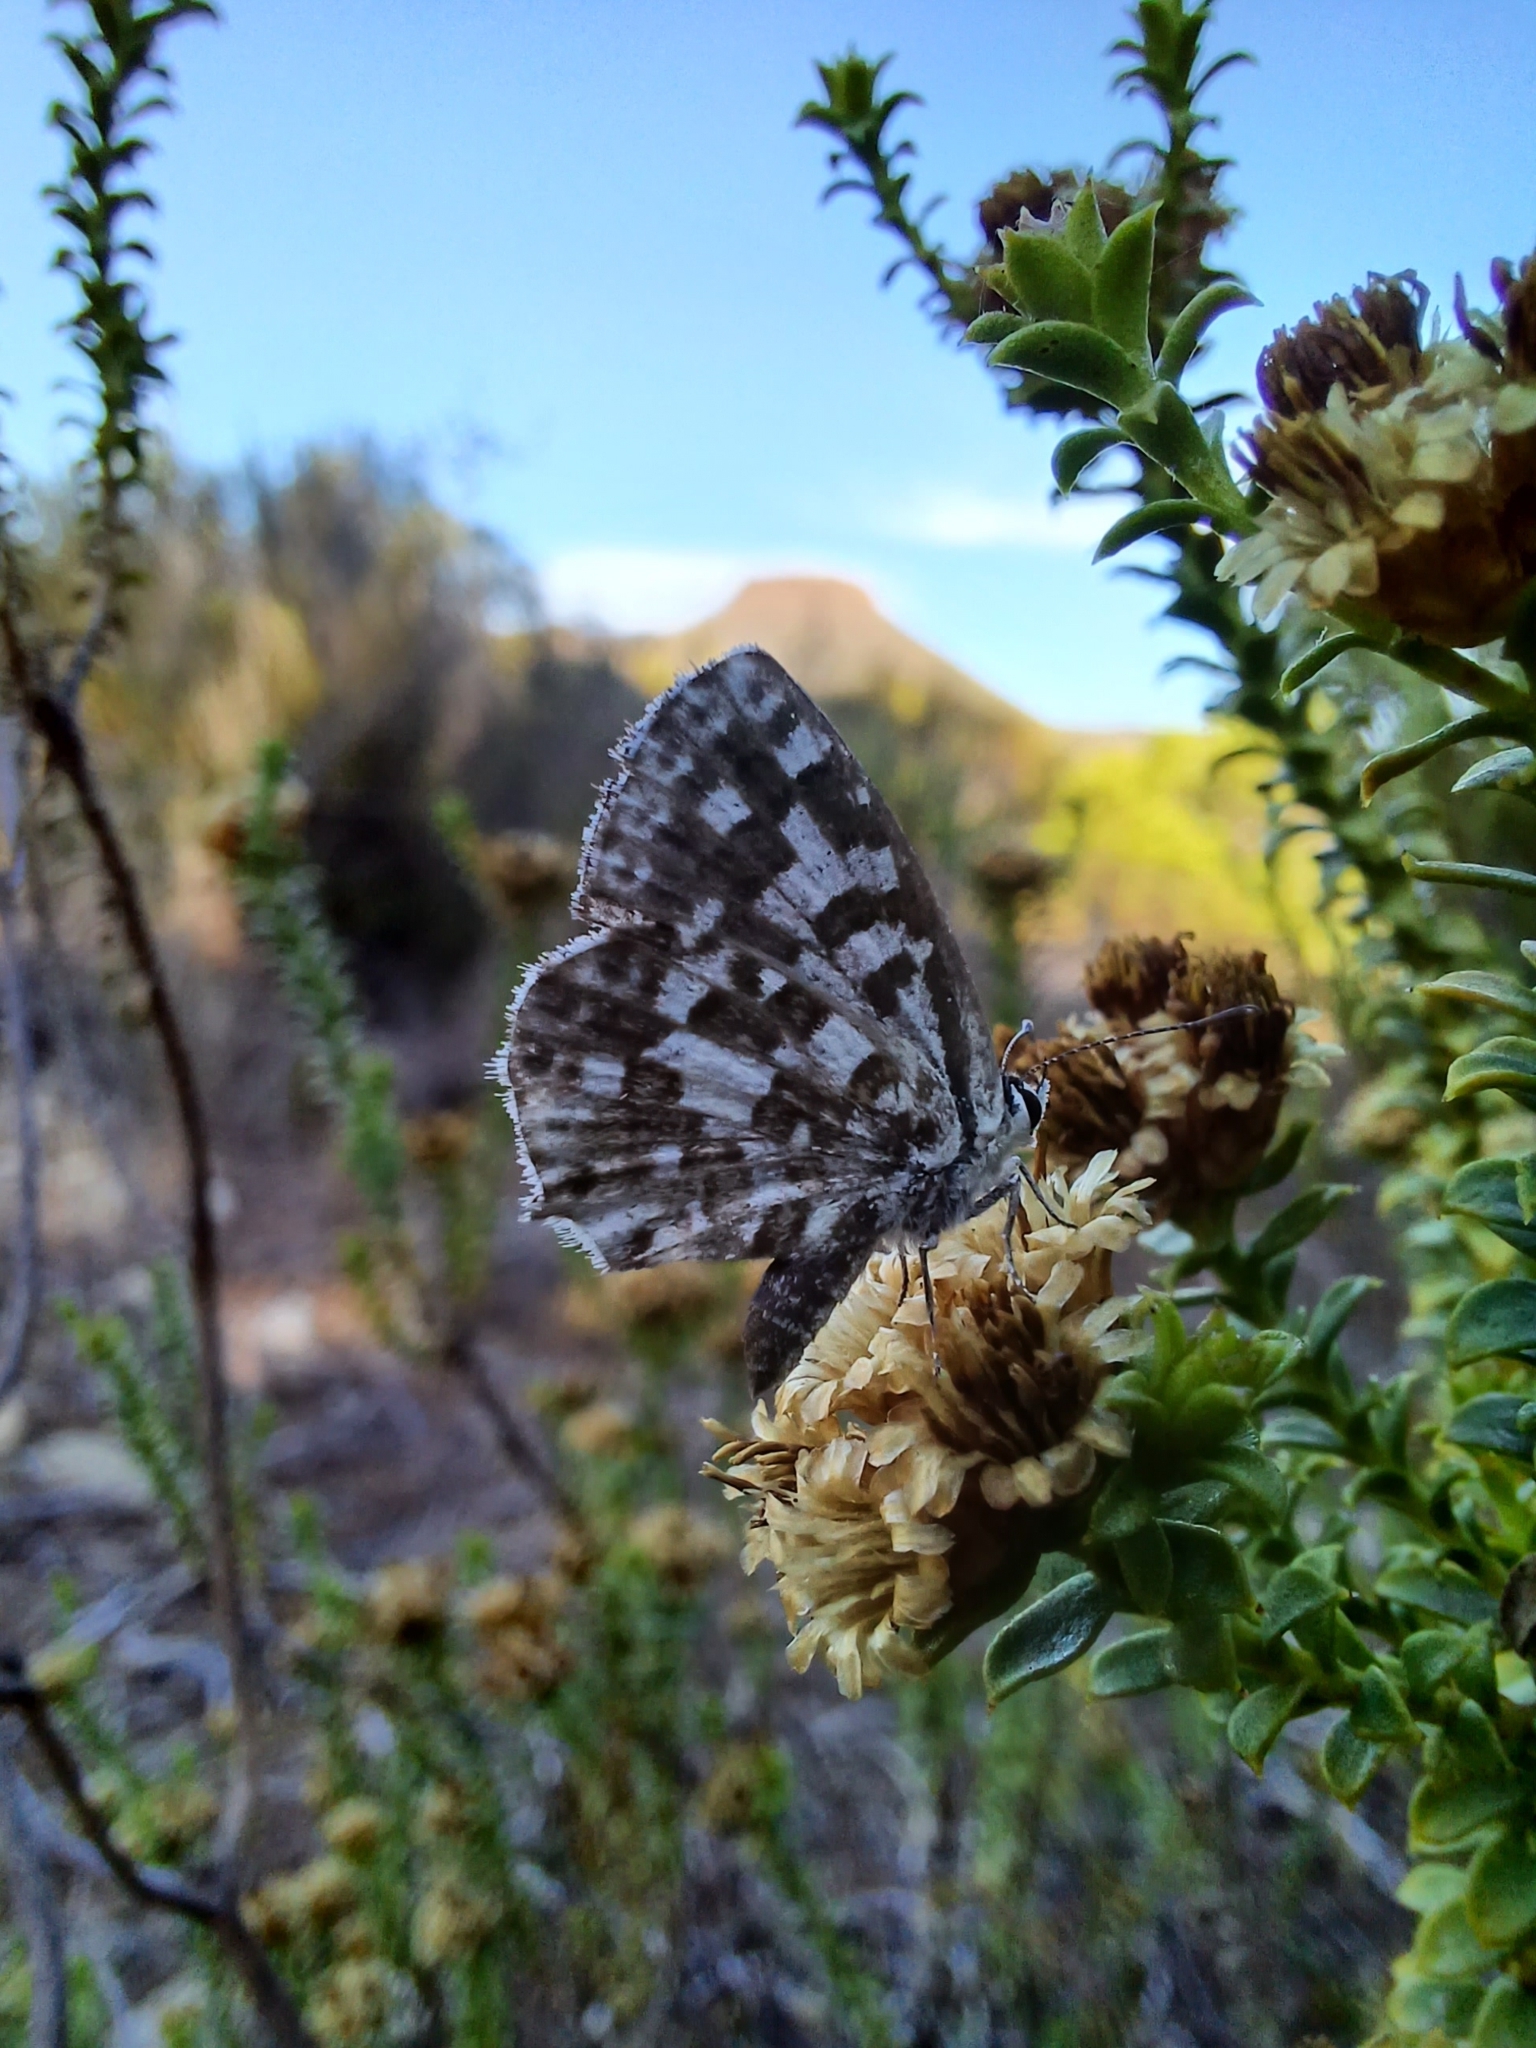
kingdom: Animalia
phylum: Arthropoda
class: Insecta
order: Lepidoptera
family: Lycaenidae
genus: Tarucus
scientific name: Tarucus thespis
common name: Vivid dotted blue
